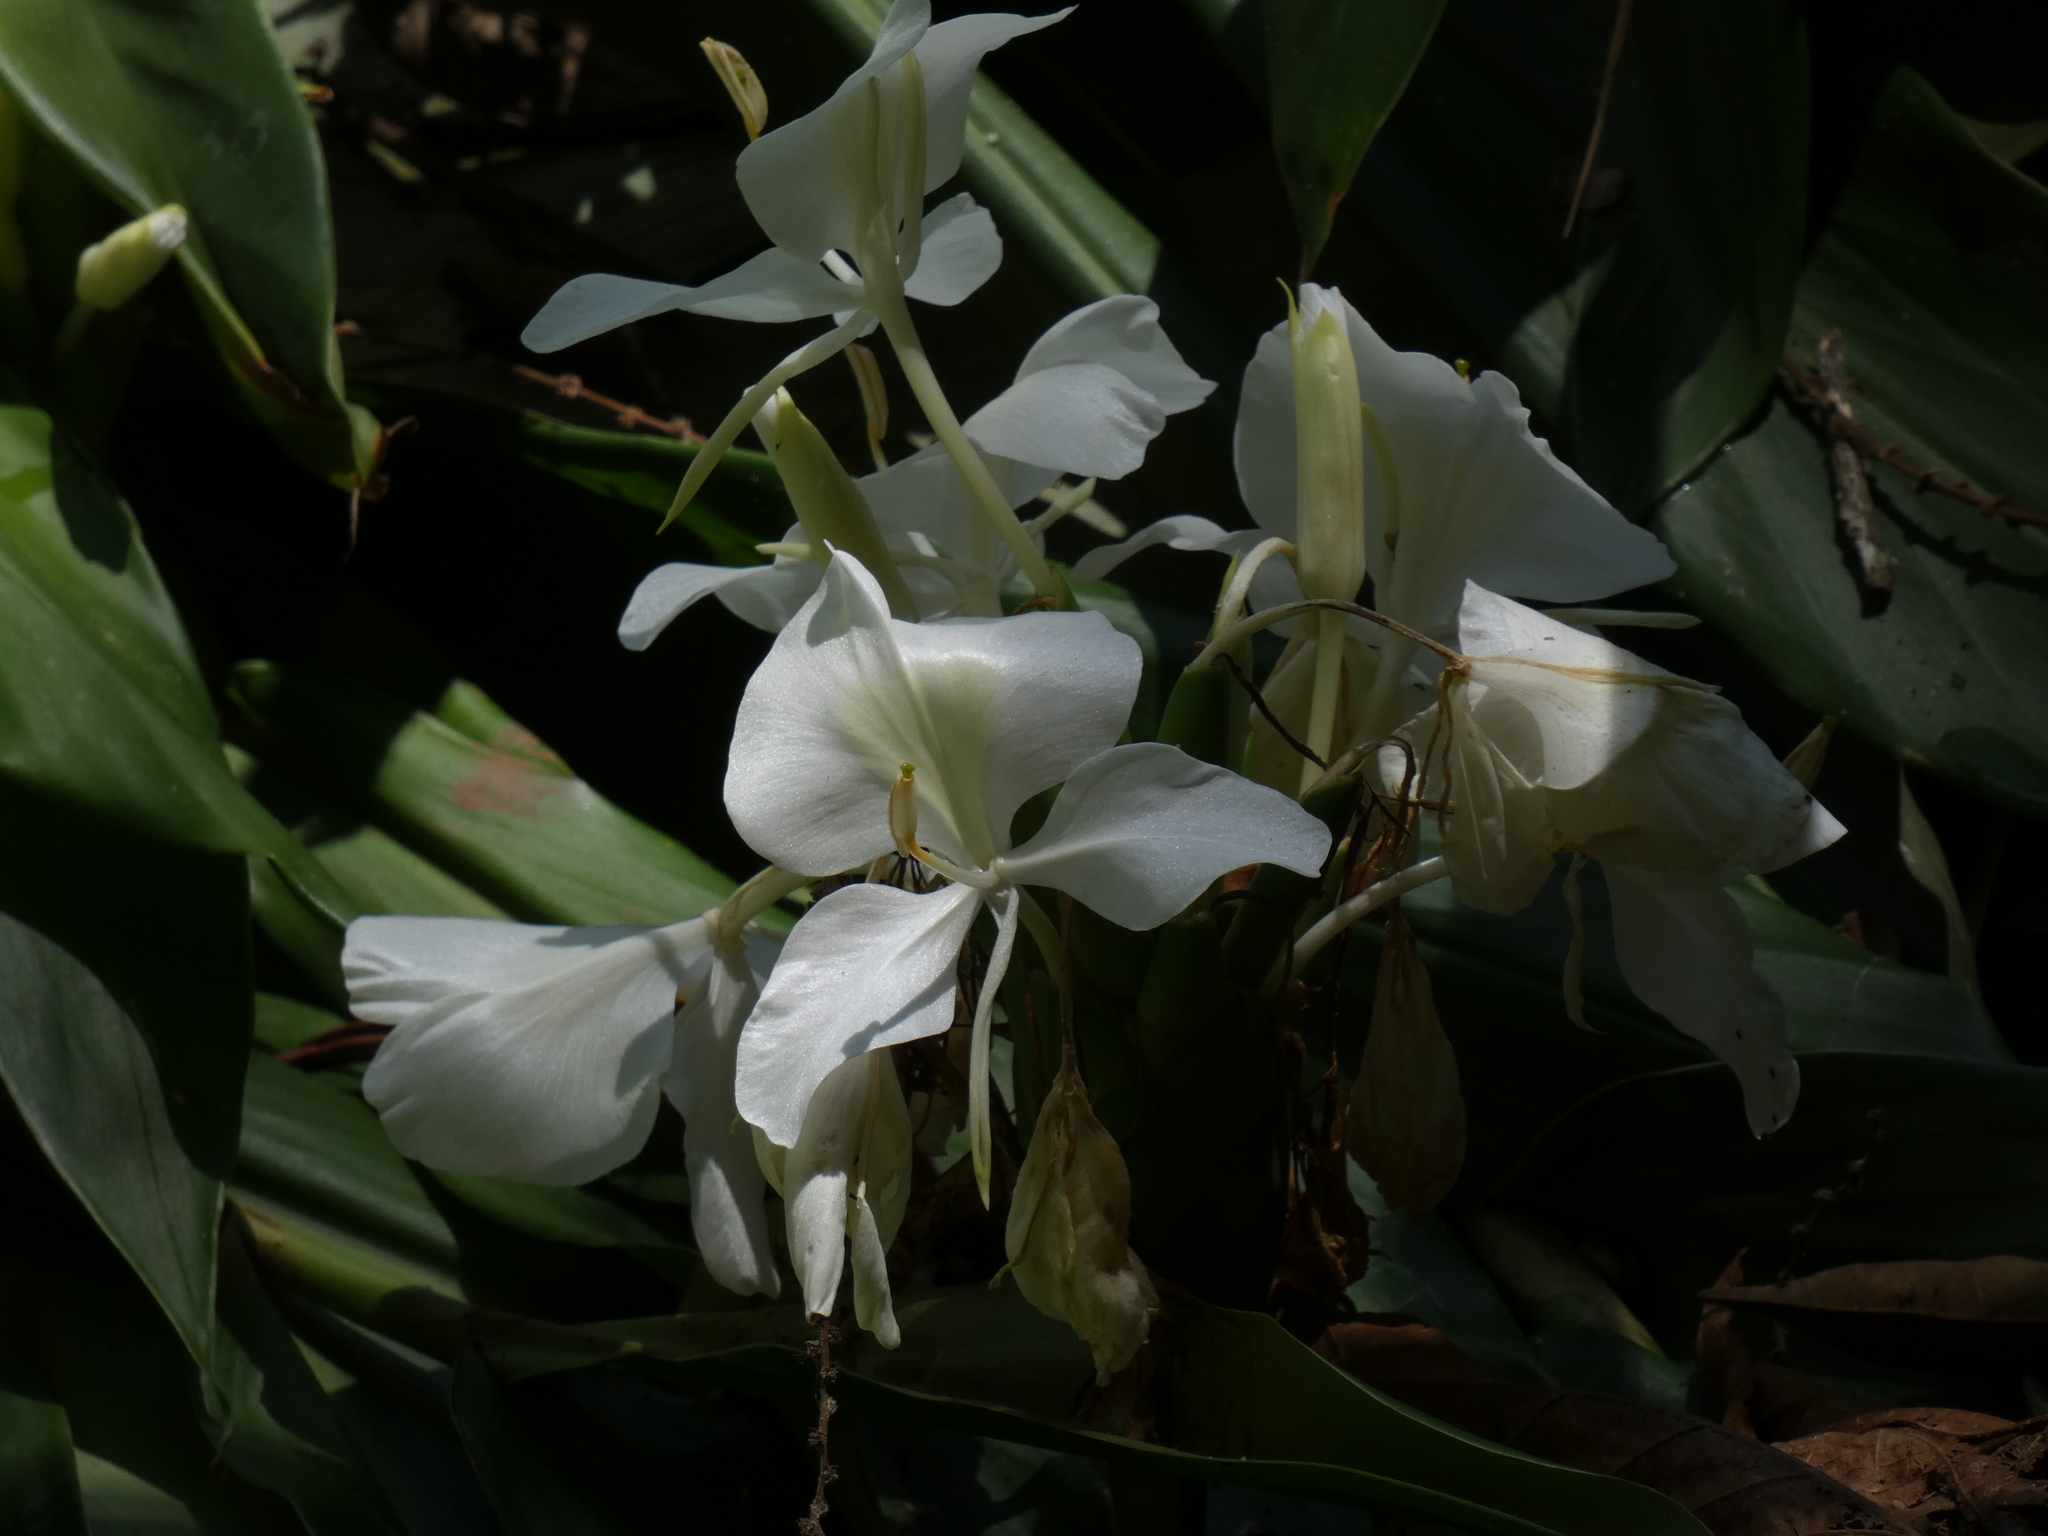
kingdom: Plantae
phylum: Tracheophyta
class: Liliopsida
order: Zingiberales
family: Zingiberaceae
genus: Hedychium
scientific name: Hedychium coronarium
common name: White garland-lily
